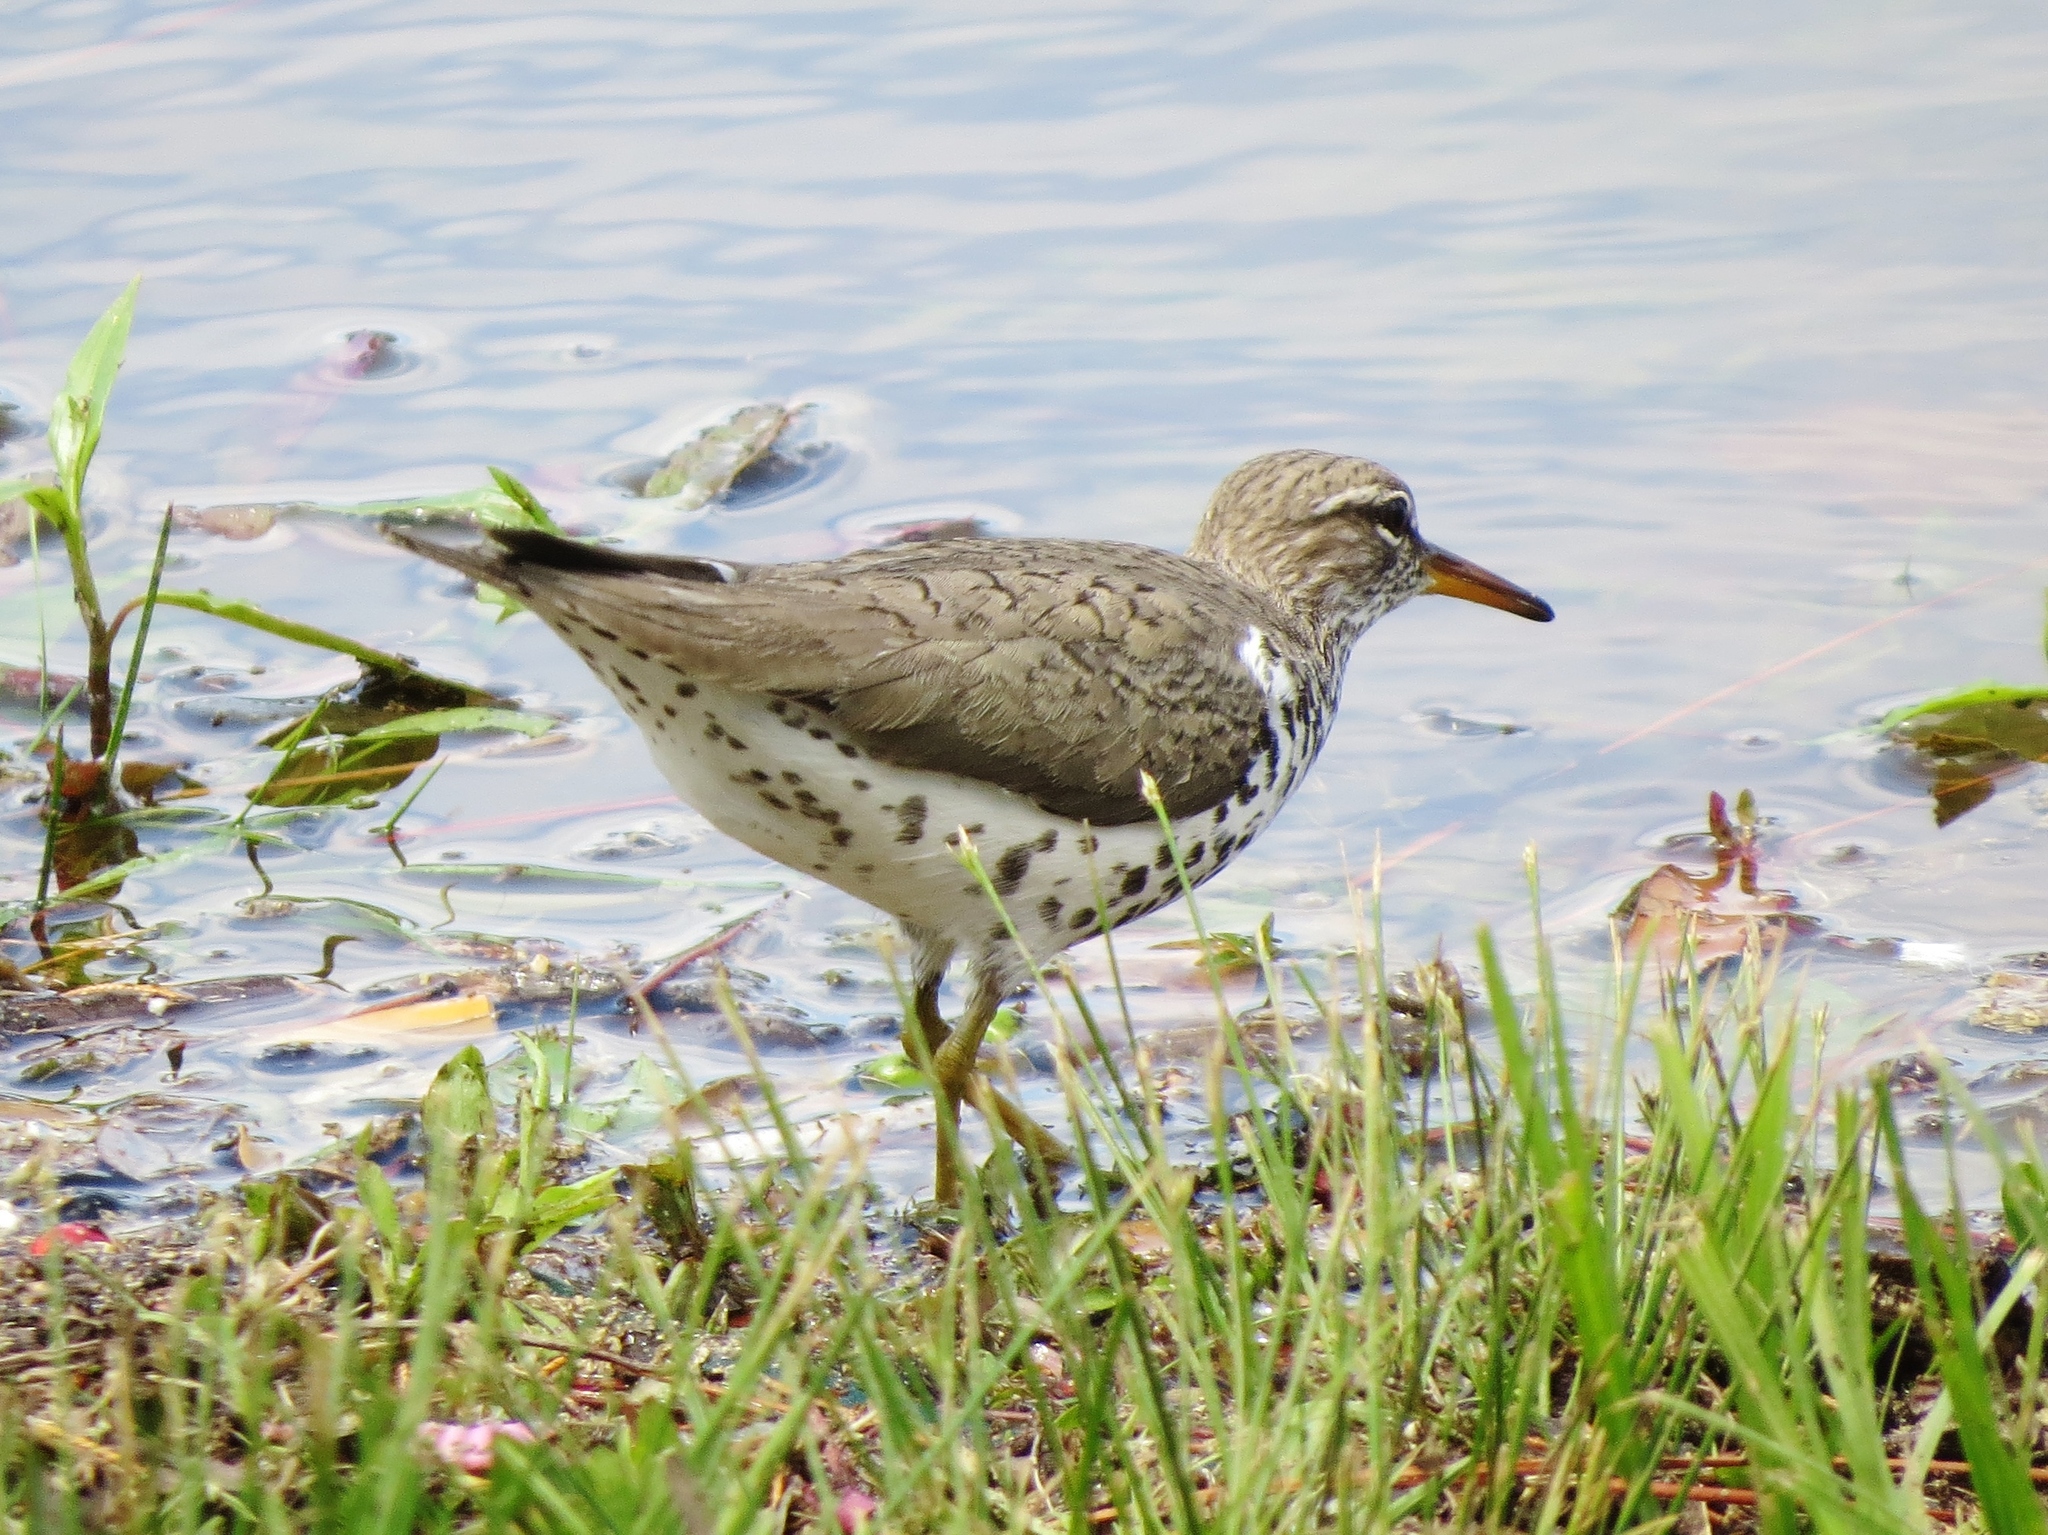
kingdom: Animalia
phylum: Chordata
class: Aves
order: Charadriiformes
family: Scolopacidae
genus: Actitis
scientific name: Actitis macularius
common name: Spotted sandpiper
